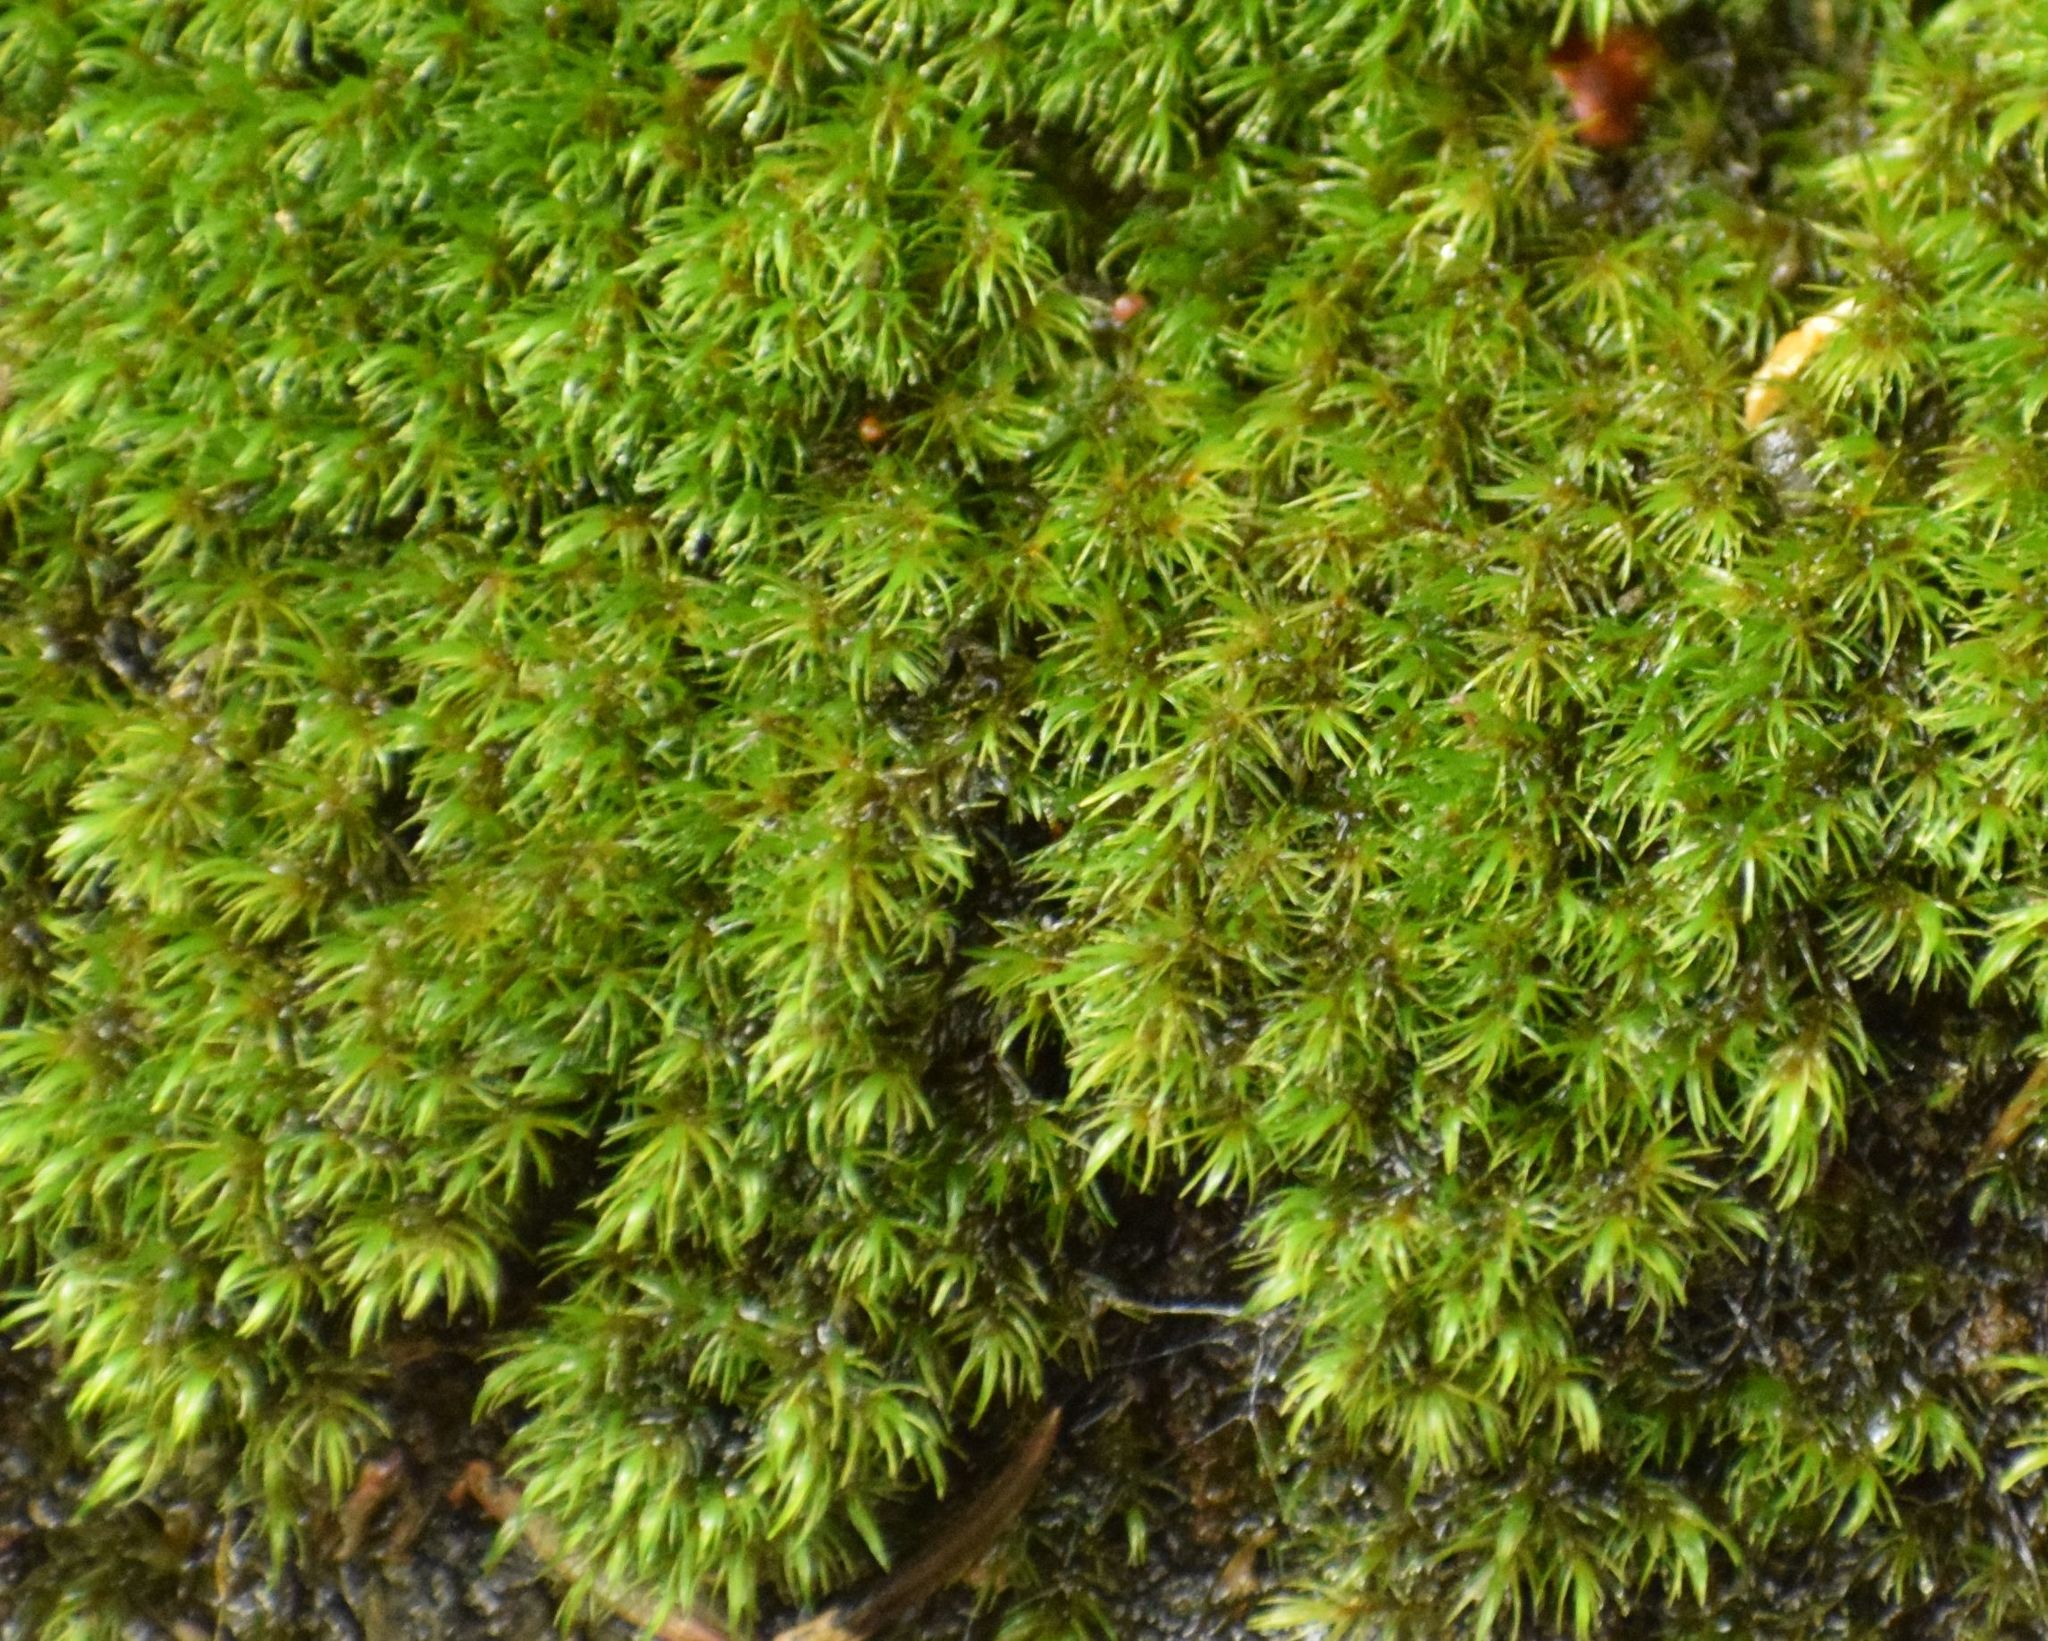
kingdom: Plantae
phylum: Bryophyta
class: Bryopsida
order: Grimmiales
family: Seligeriaceae
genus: Blindia
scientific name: Blindia acuta
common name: Sharp-leaved blind's moss
